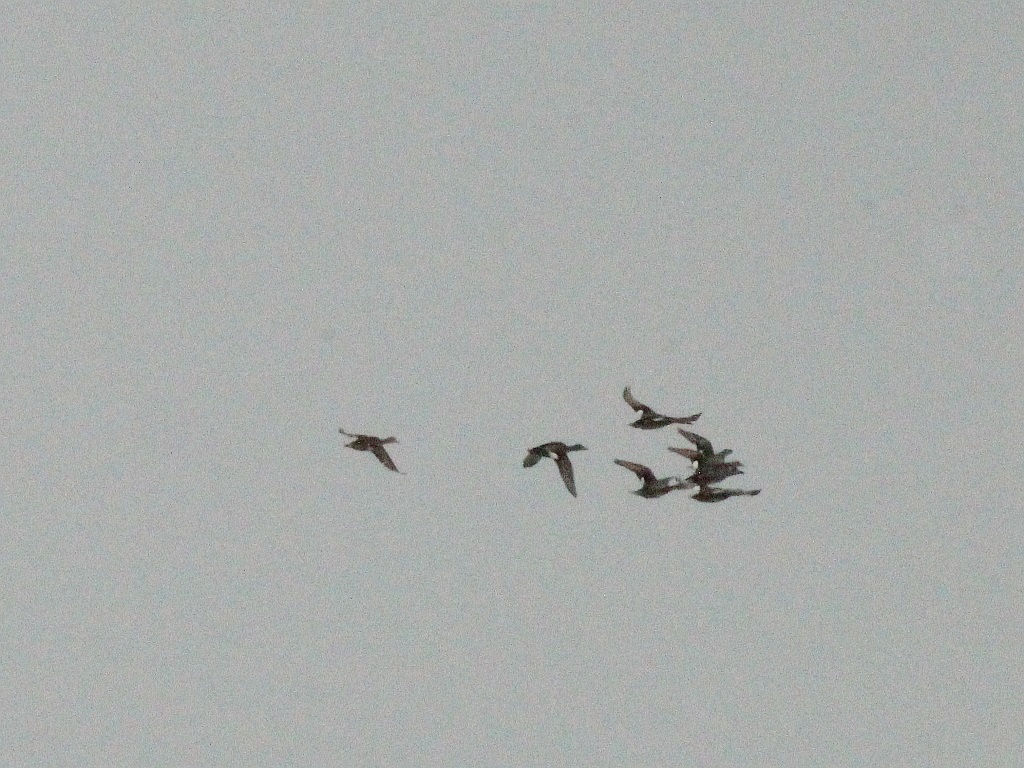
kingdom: Animalia
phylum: Chordata
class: Aves
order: Anseriformes
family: Anatidae
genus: Mareca
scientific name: Mareca strepera
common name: Gadwall
